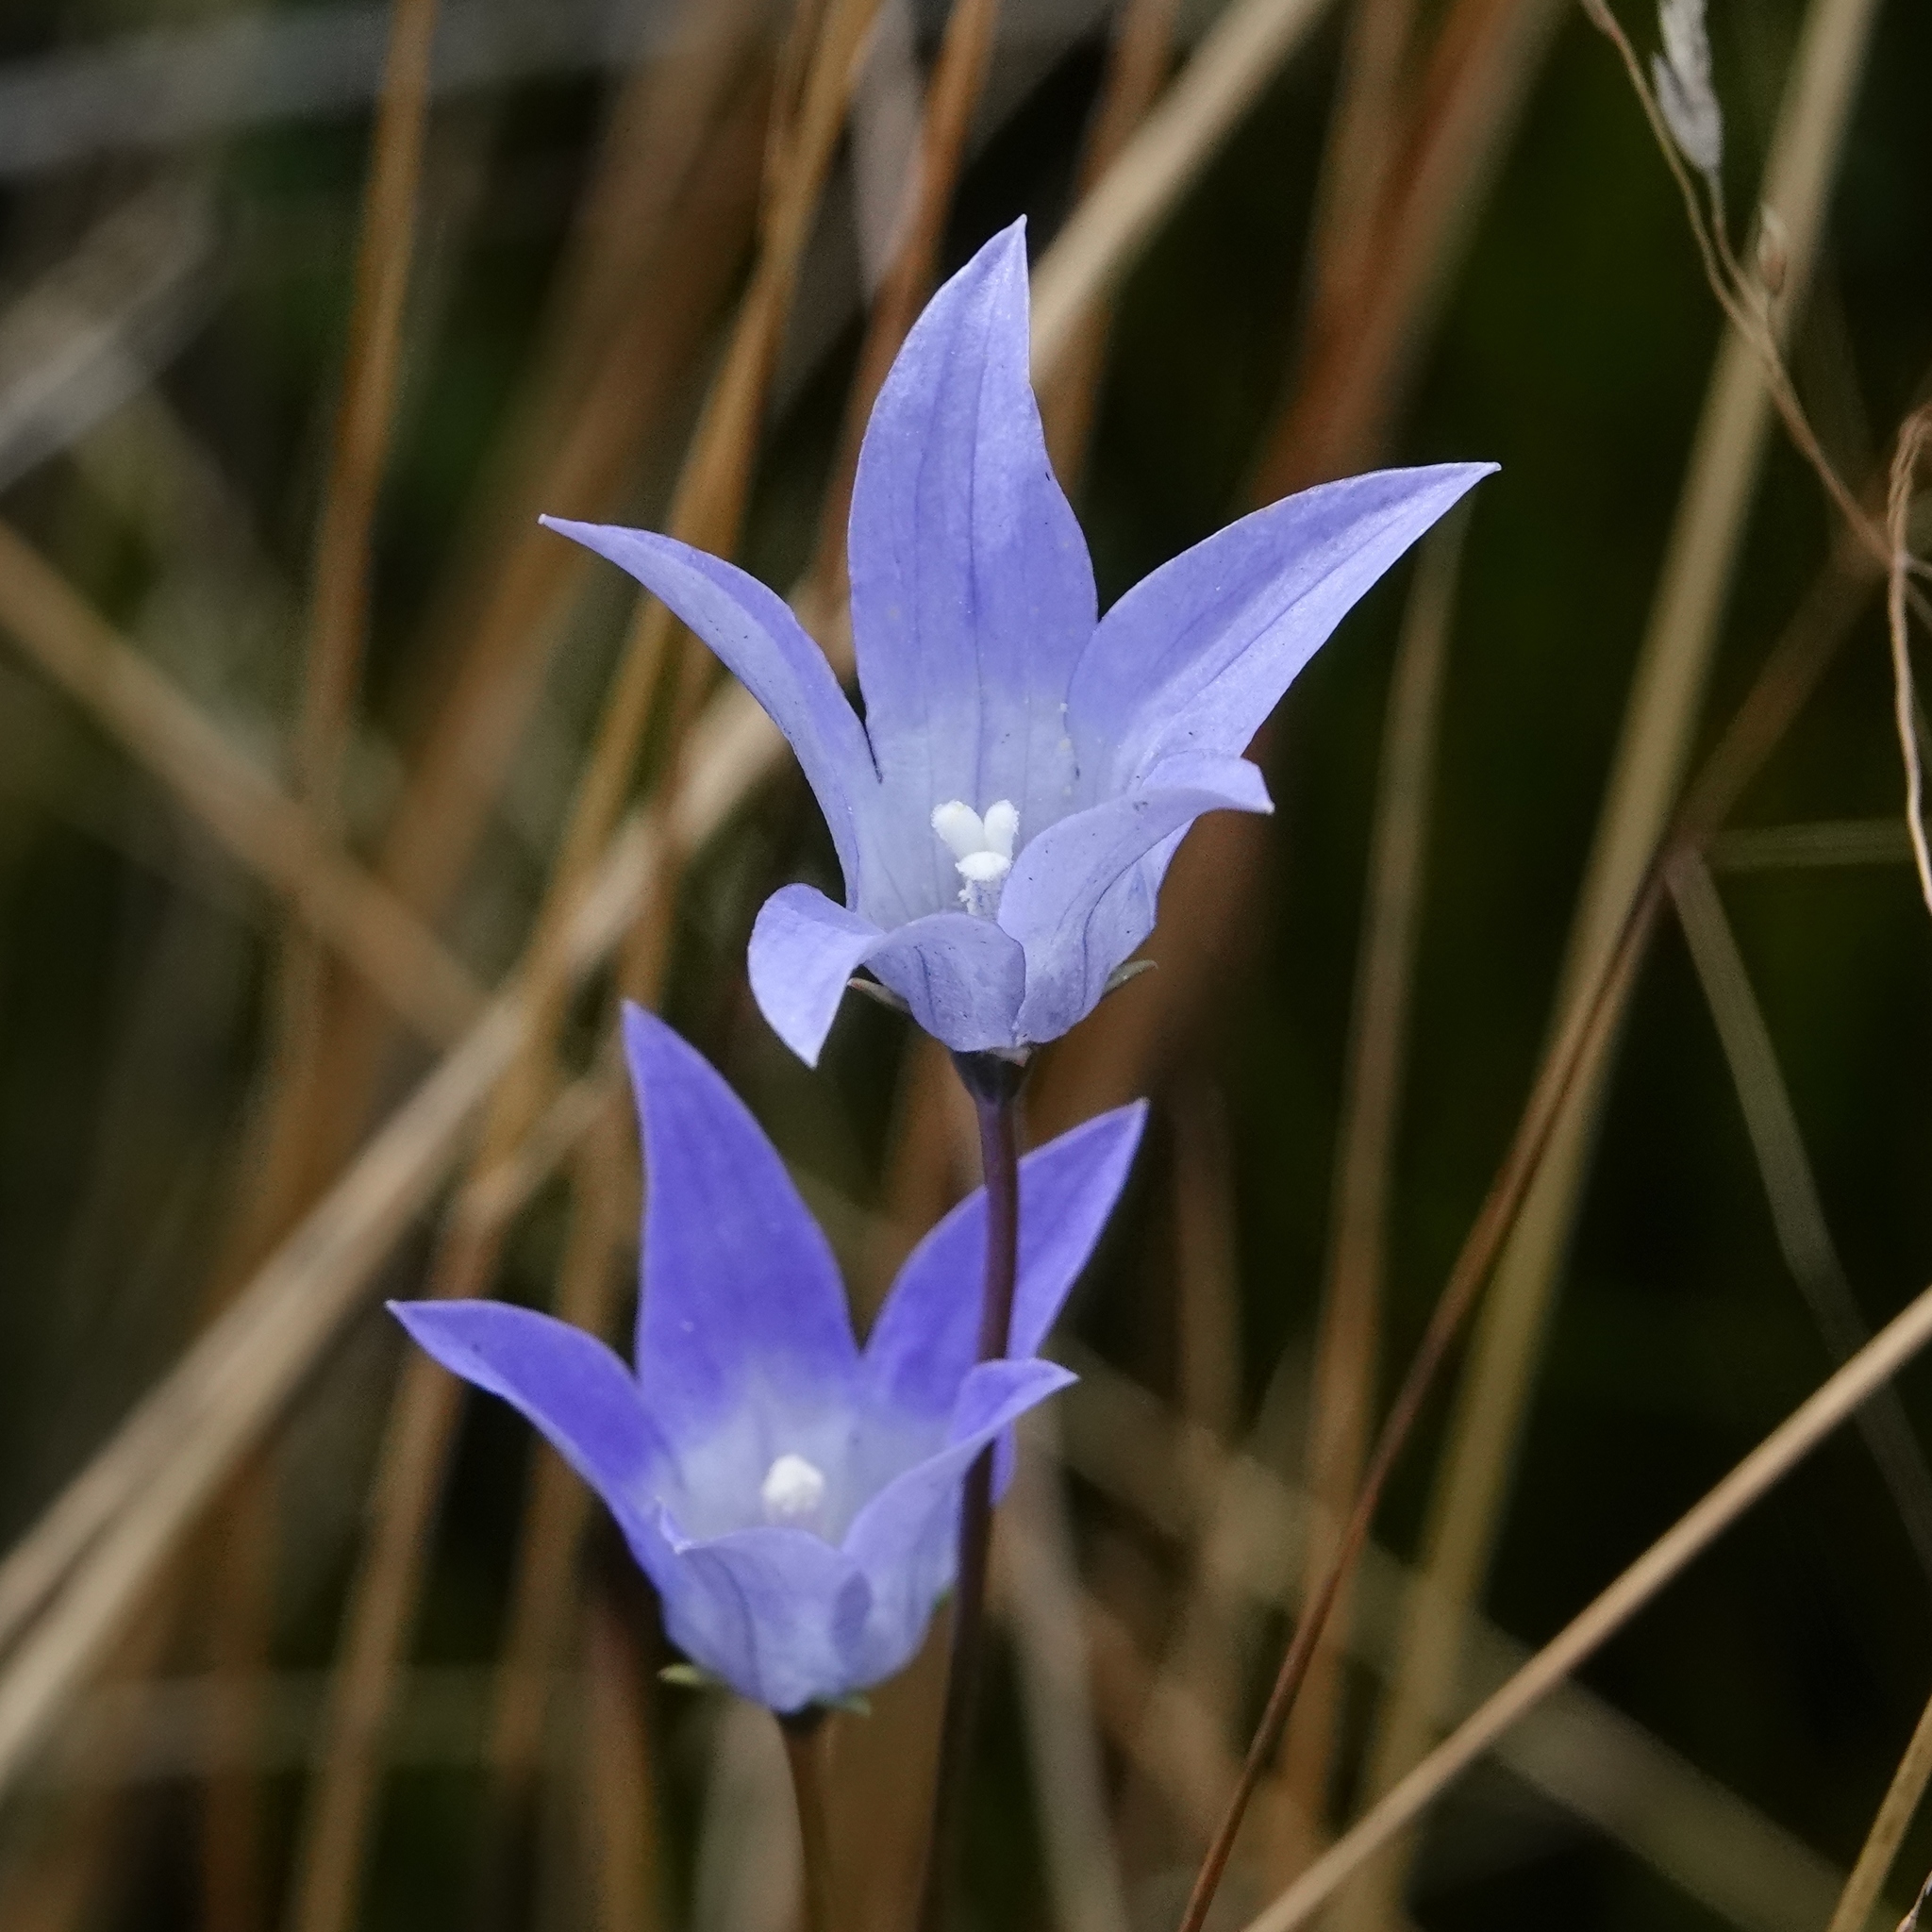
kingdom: Plantae
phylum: Tracheophyta
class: Magnoliopsida
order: Asterales
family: Campanulaceae
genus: Wahlenbergia
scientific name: Wahlenbergia ceracea
